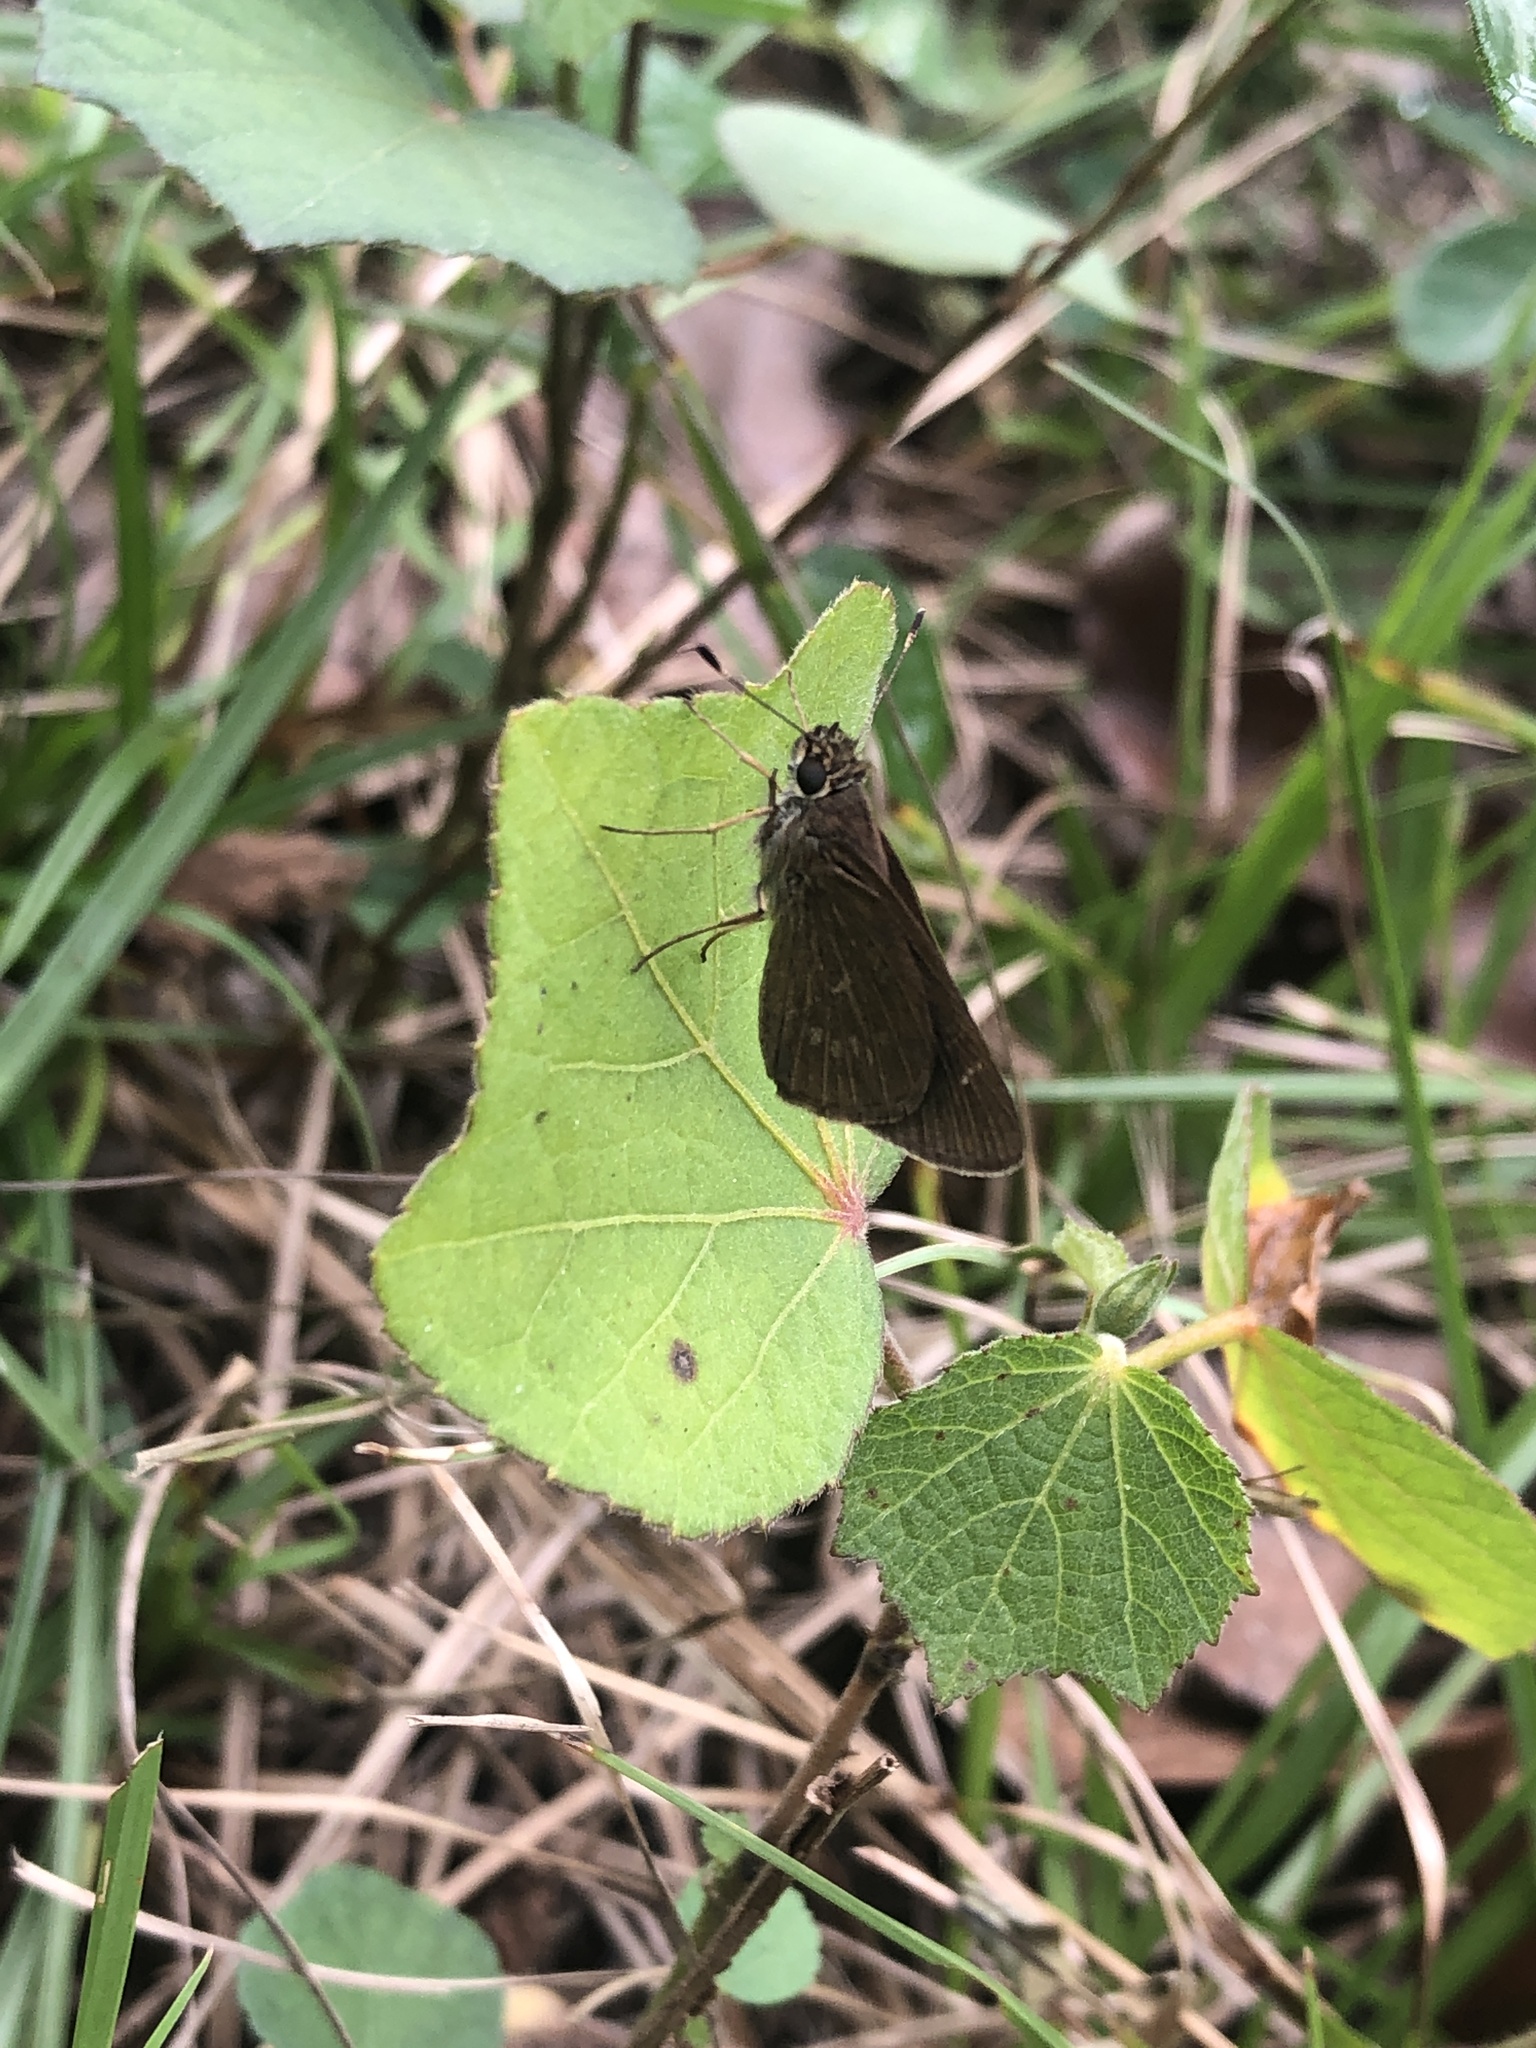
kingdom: Animalia
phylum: Arthropoda
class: Insecta
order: Lepidoptera
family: Hesperiidae
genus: Cymaenes
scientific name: Cymaenes tripunctus
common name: Dingy dotted skipper
